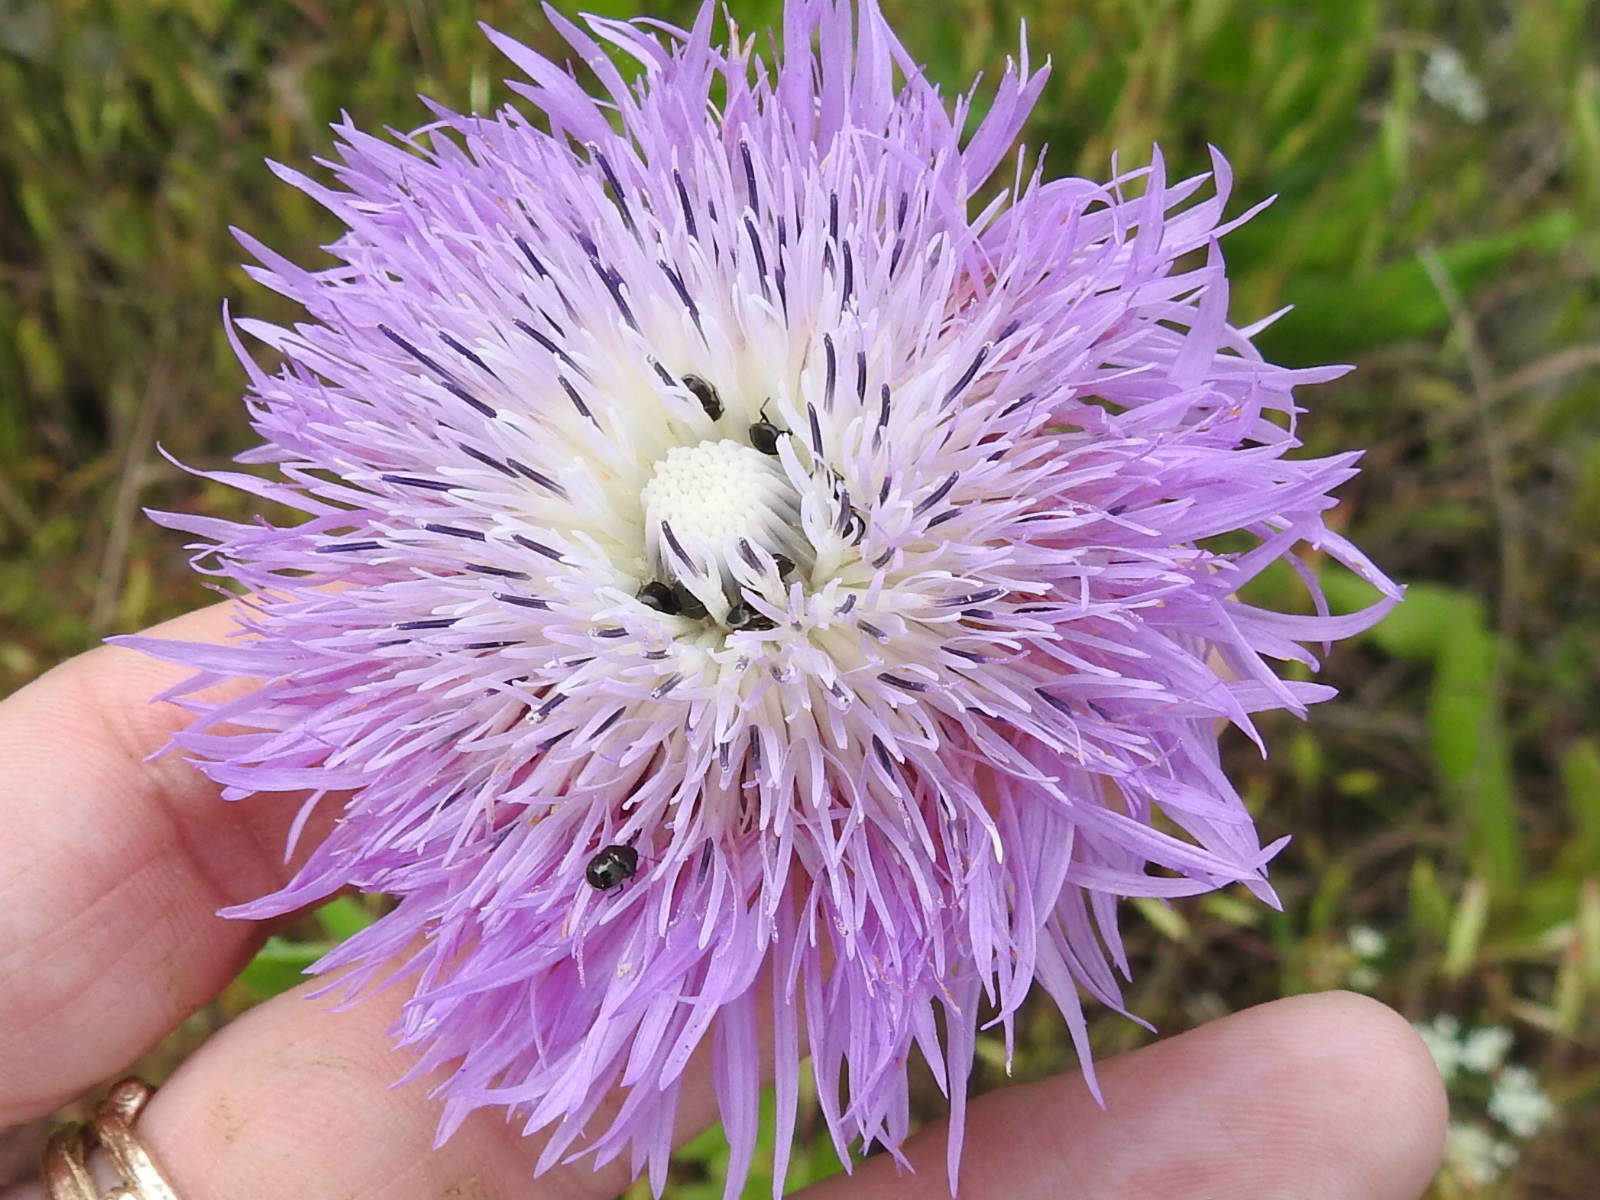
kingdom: Plantae
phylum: Tracheophyta
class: Magnoliopsida
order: Asterales
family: Asteraceae
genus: Plectocephalus
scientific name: Plectocephalus americanus
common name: American basket-flower
